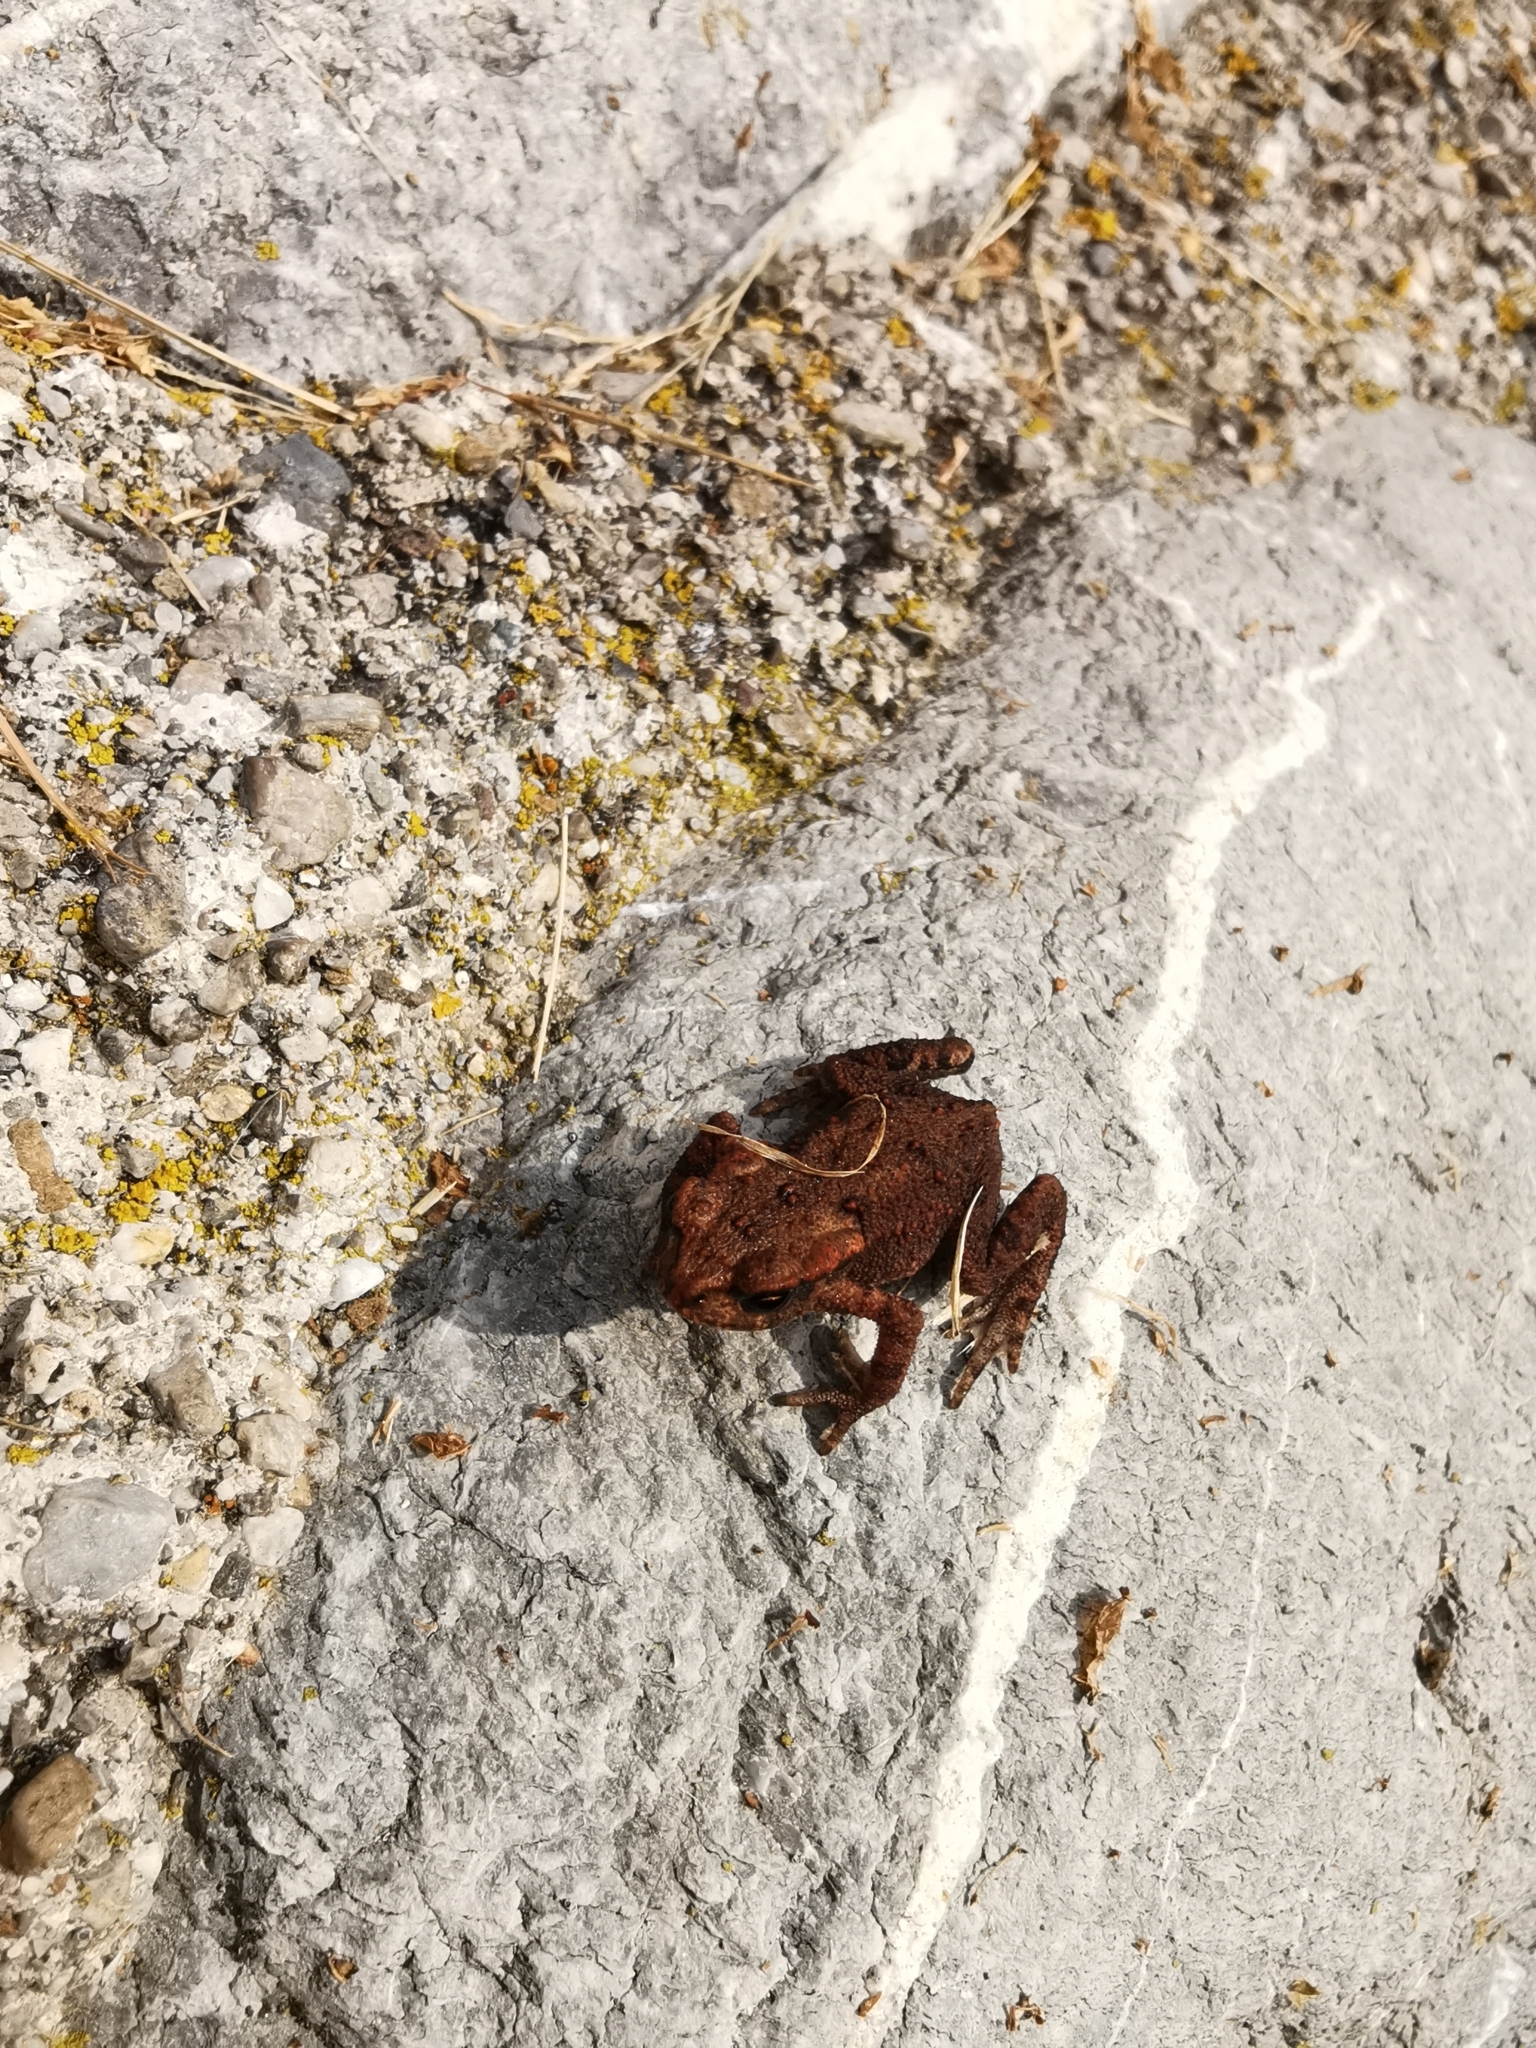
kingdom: Animalia
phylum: Chordata
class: Amphibia
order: Anura
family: Bufonidae
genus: Bufo
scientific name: Bufo bufo
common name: Common toad
